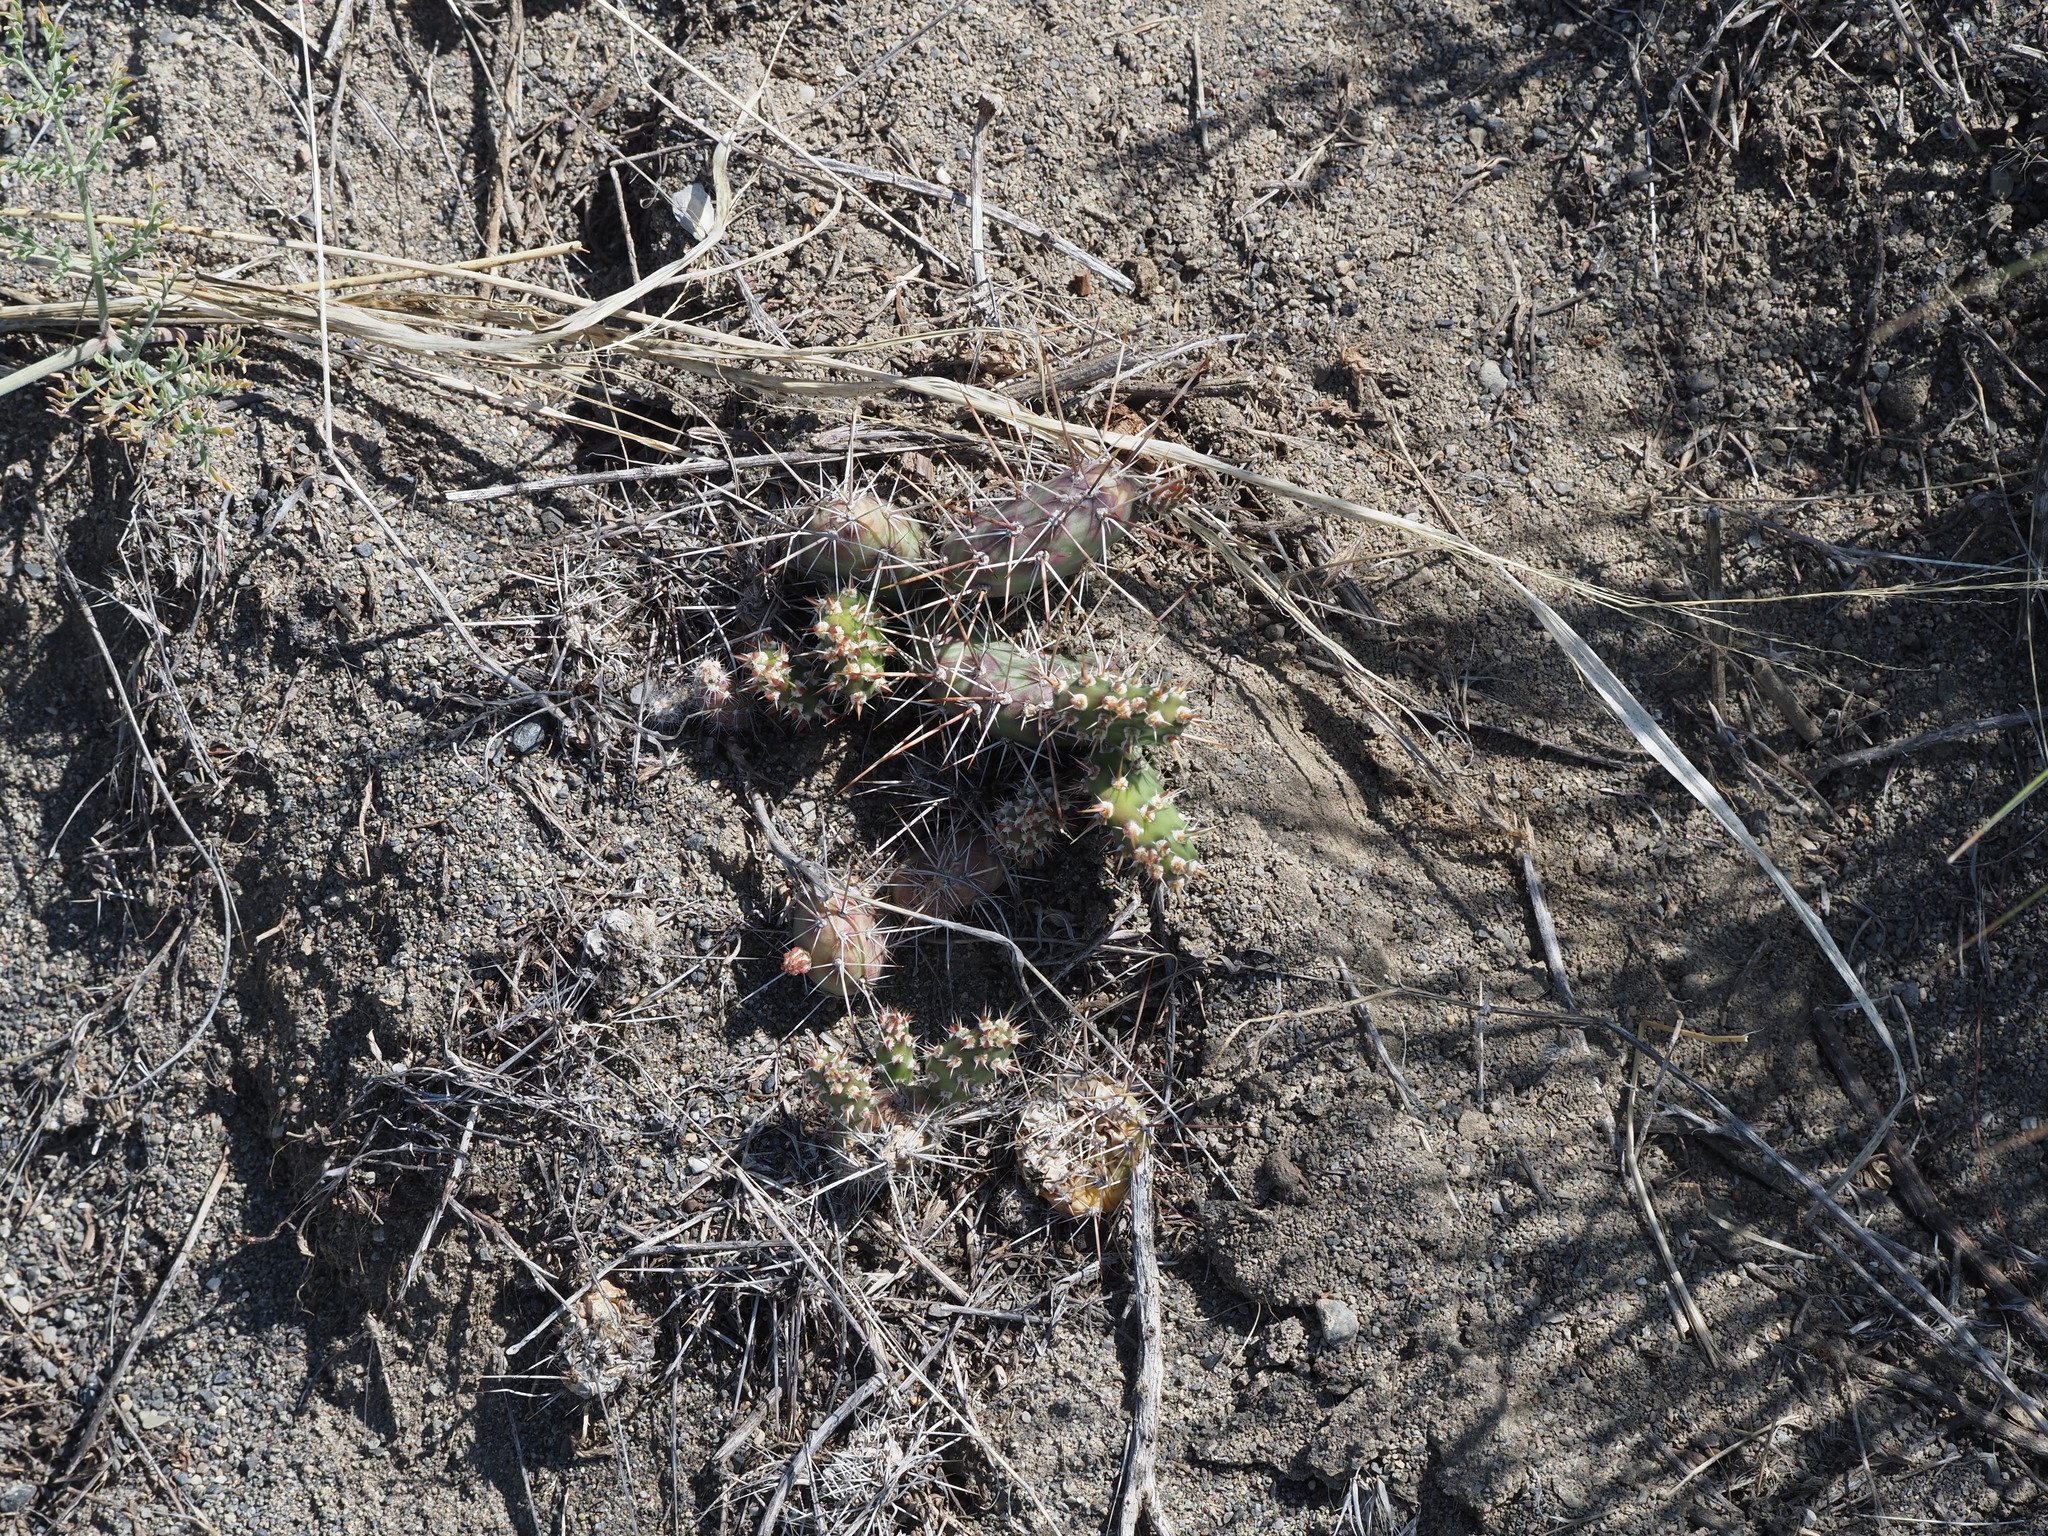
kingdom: Plantae
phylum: Tracheophyta
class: Magnoliopsida
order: Caryophyllales
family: Cactaceae
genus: Opuntia
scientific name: Opuntia fragilis
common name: Brittle cactus
